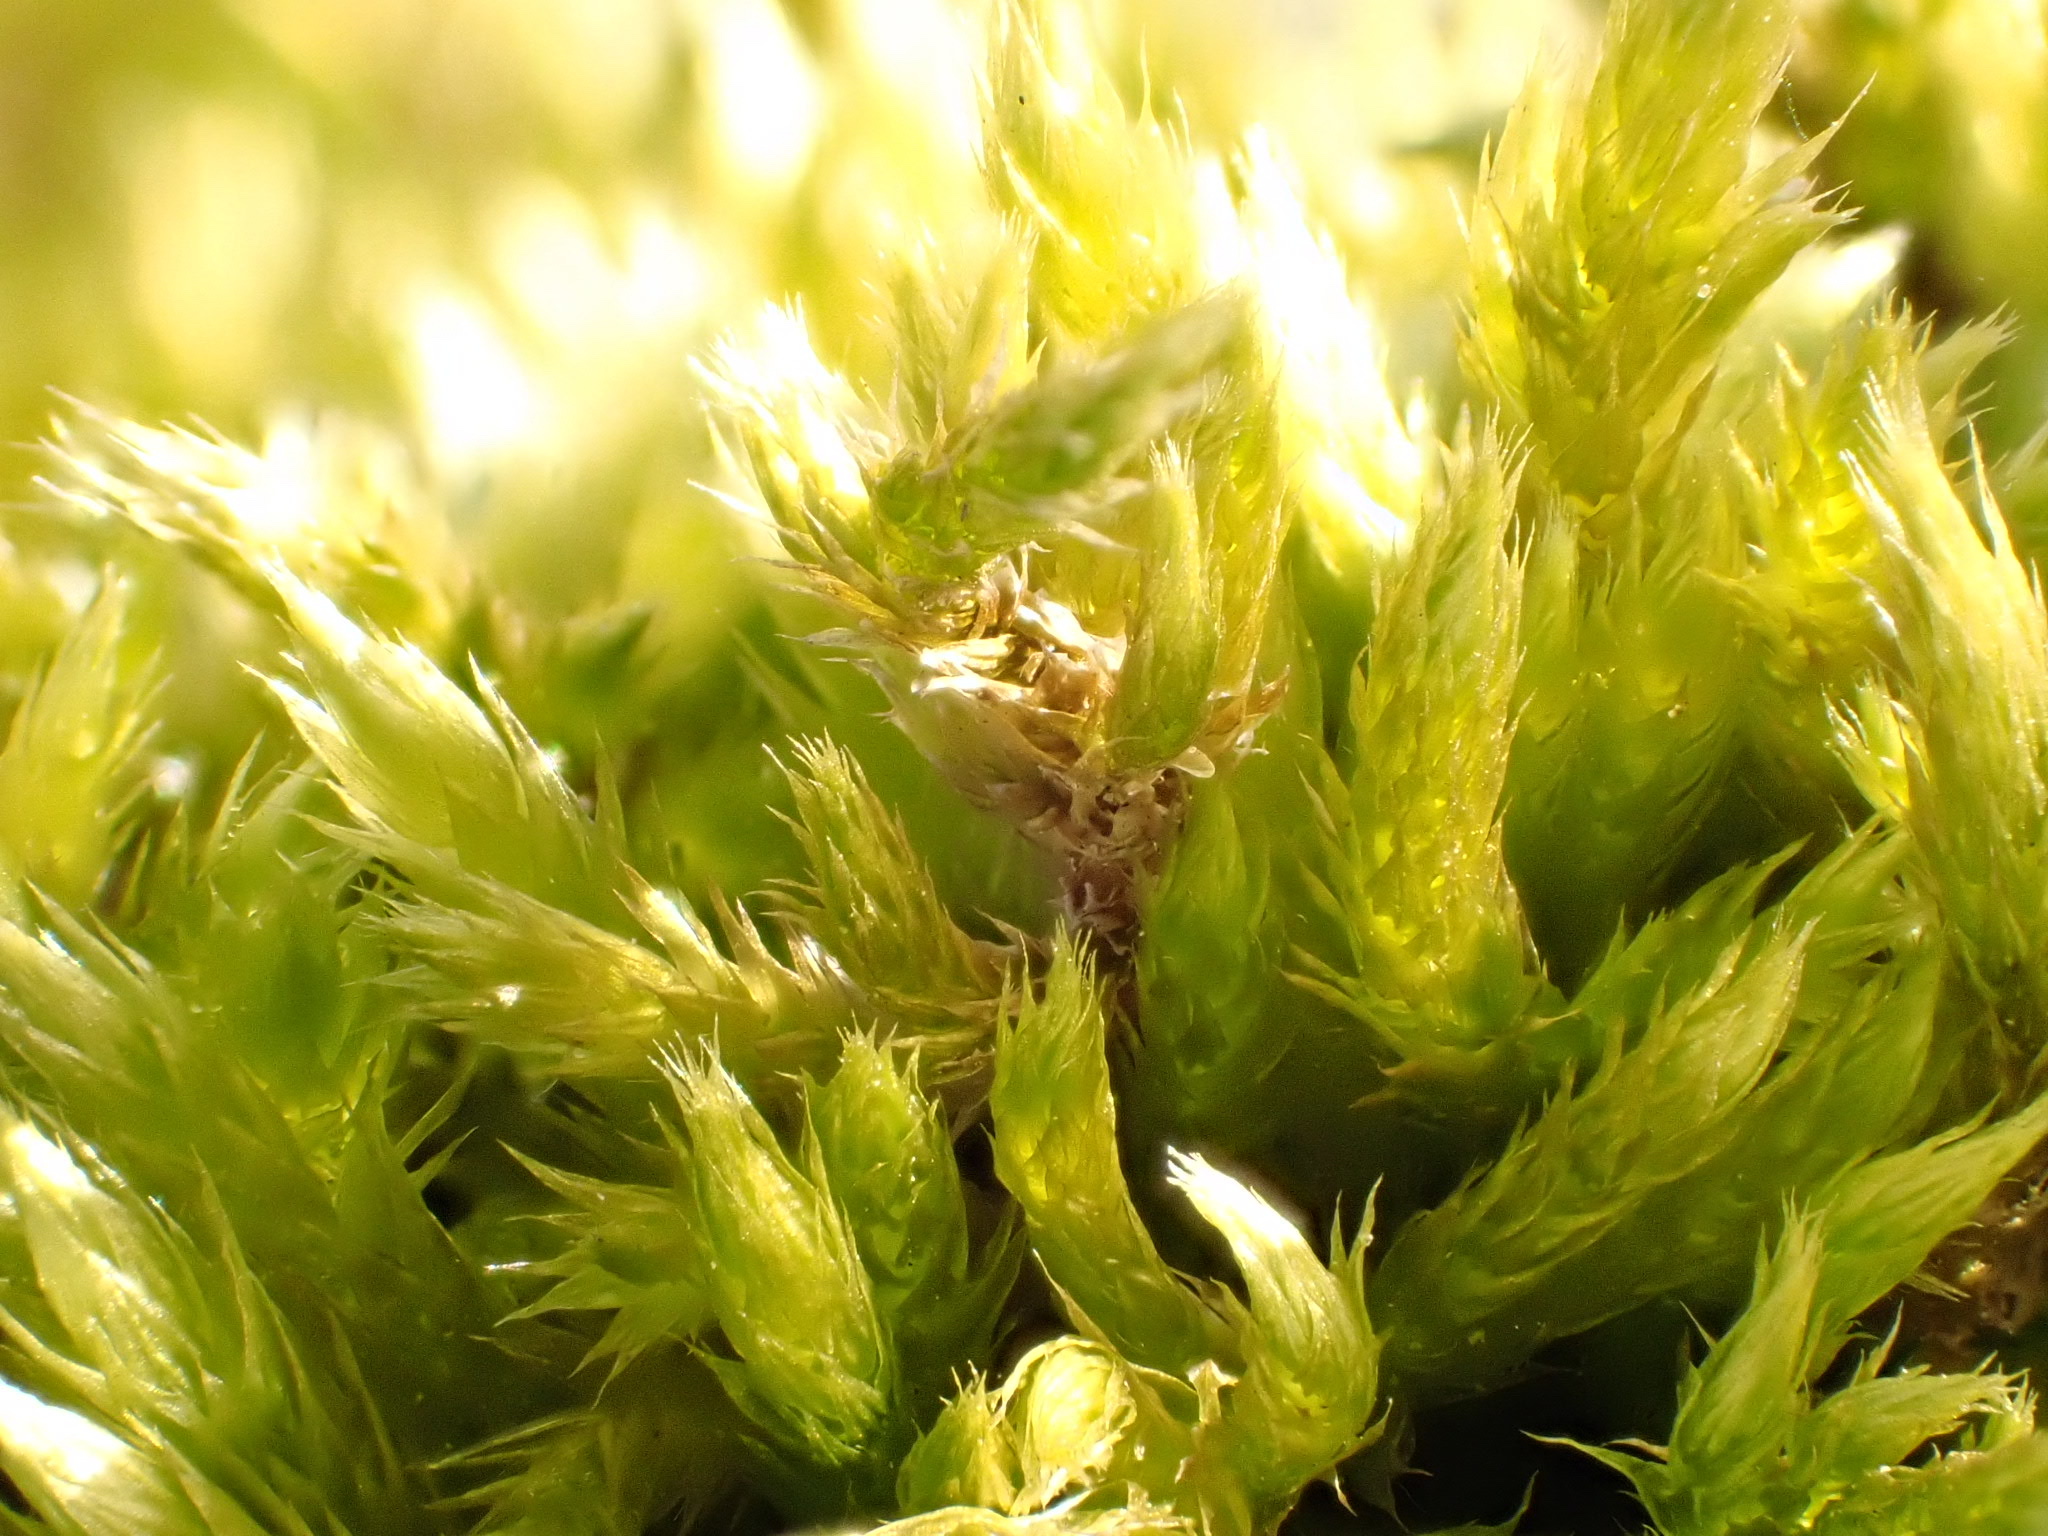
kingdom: Plantae
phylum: Bryophyta
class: Bryopsida
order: Hypnales
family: Brachytheciaceae
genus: Homalothecium
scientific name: Homalothecium sericeum
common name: Silky wall feather-moss
